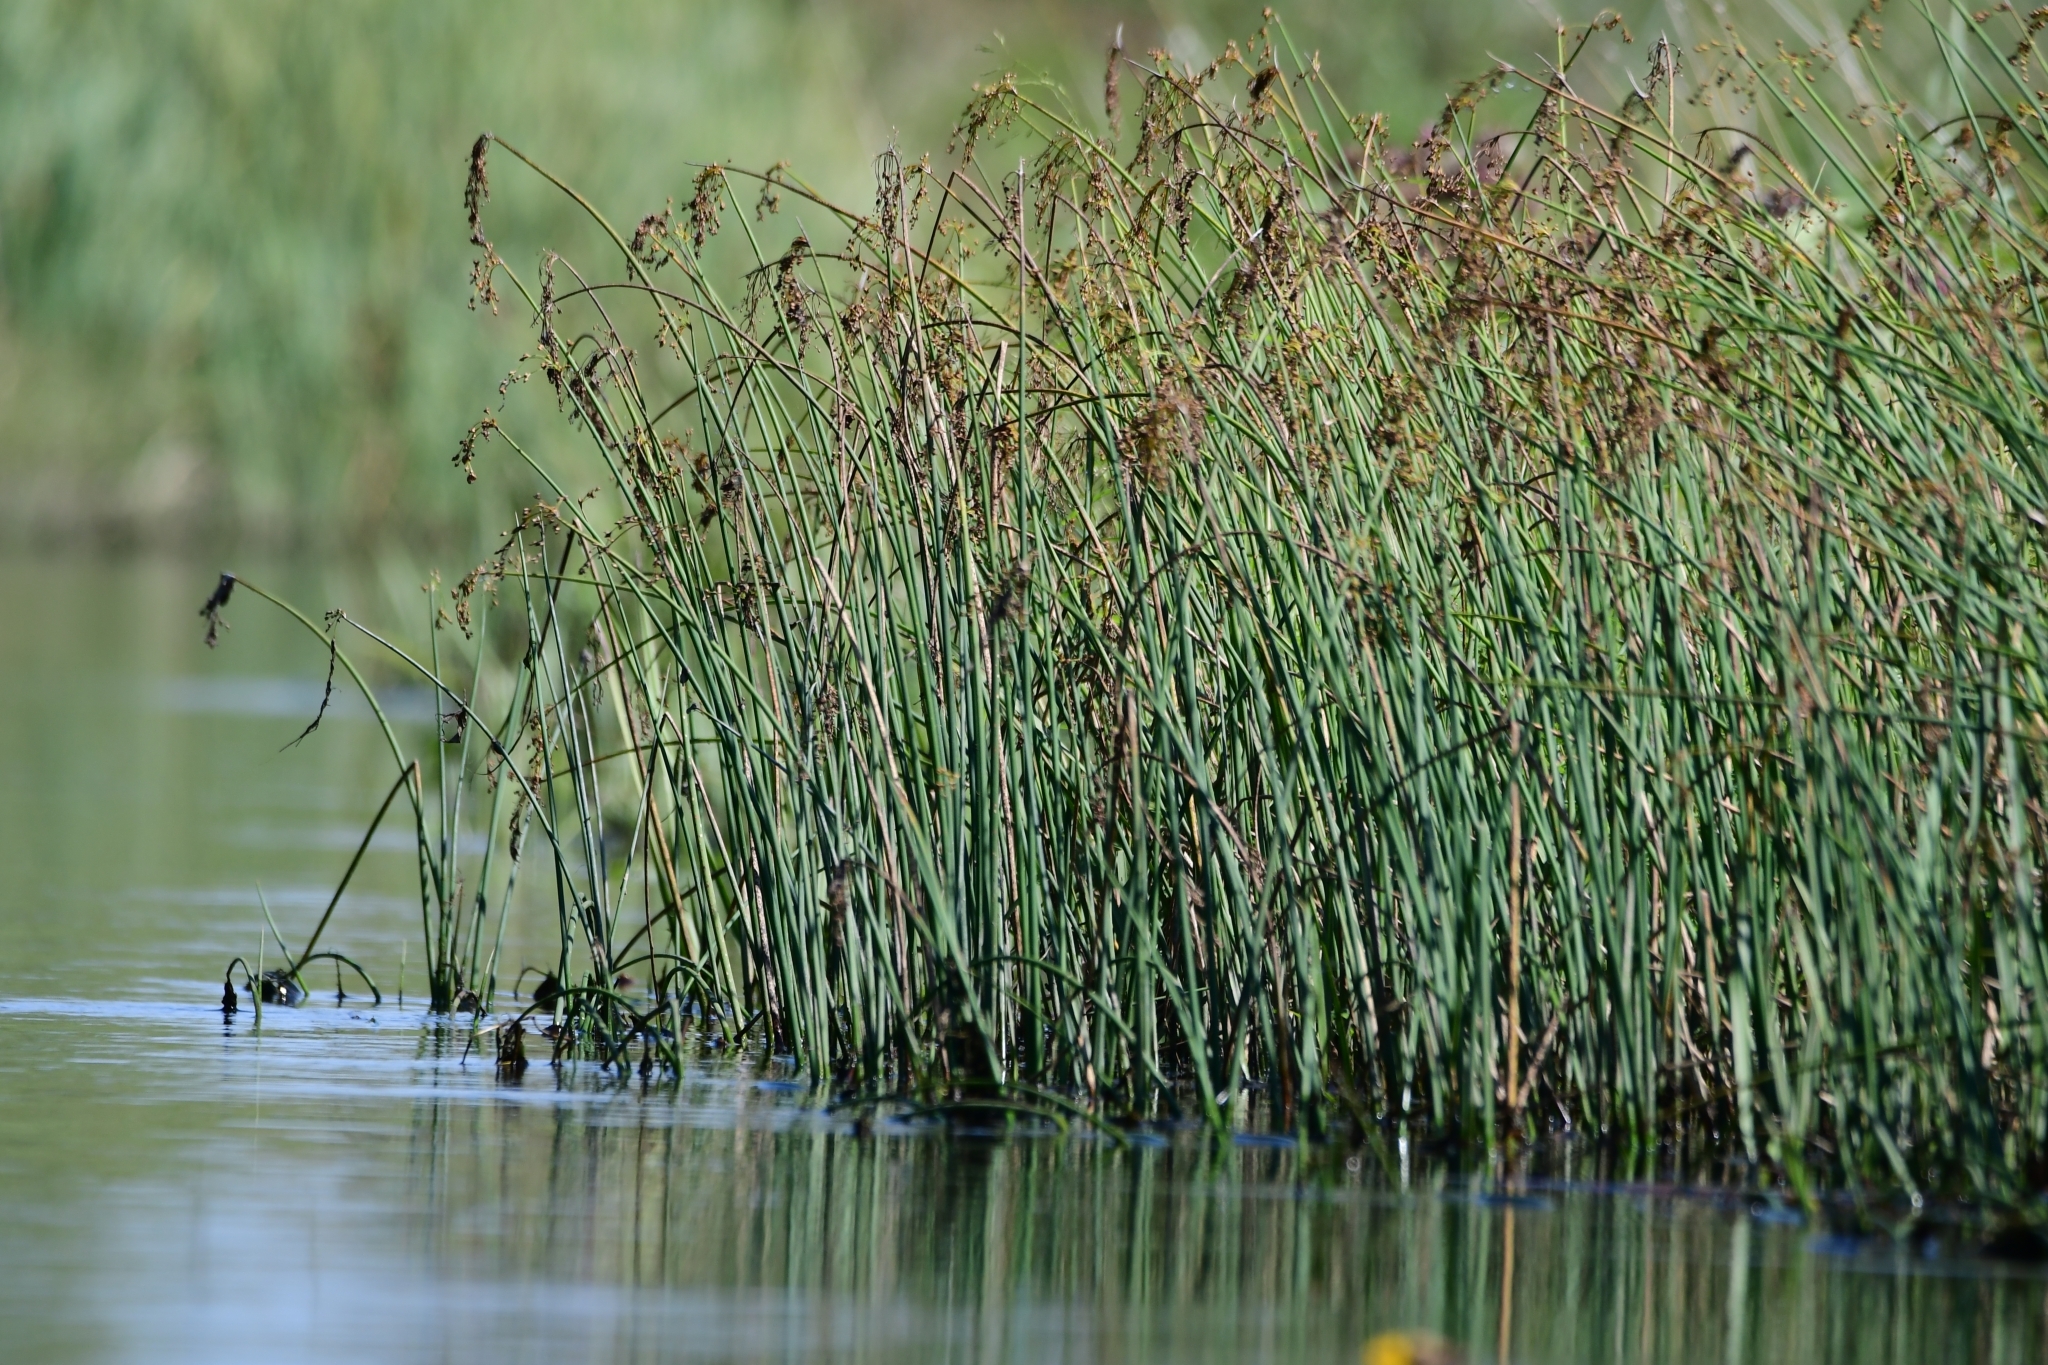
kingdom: Plantae
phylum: Tracheophyta
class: Liliopsida
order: Poales
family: Cyperaceae
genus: Schoenoplectus
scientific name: Schoenoplectus tabernaemontani
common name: Grey club-rush
